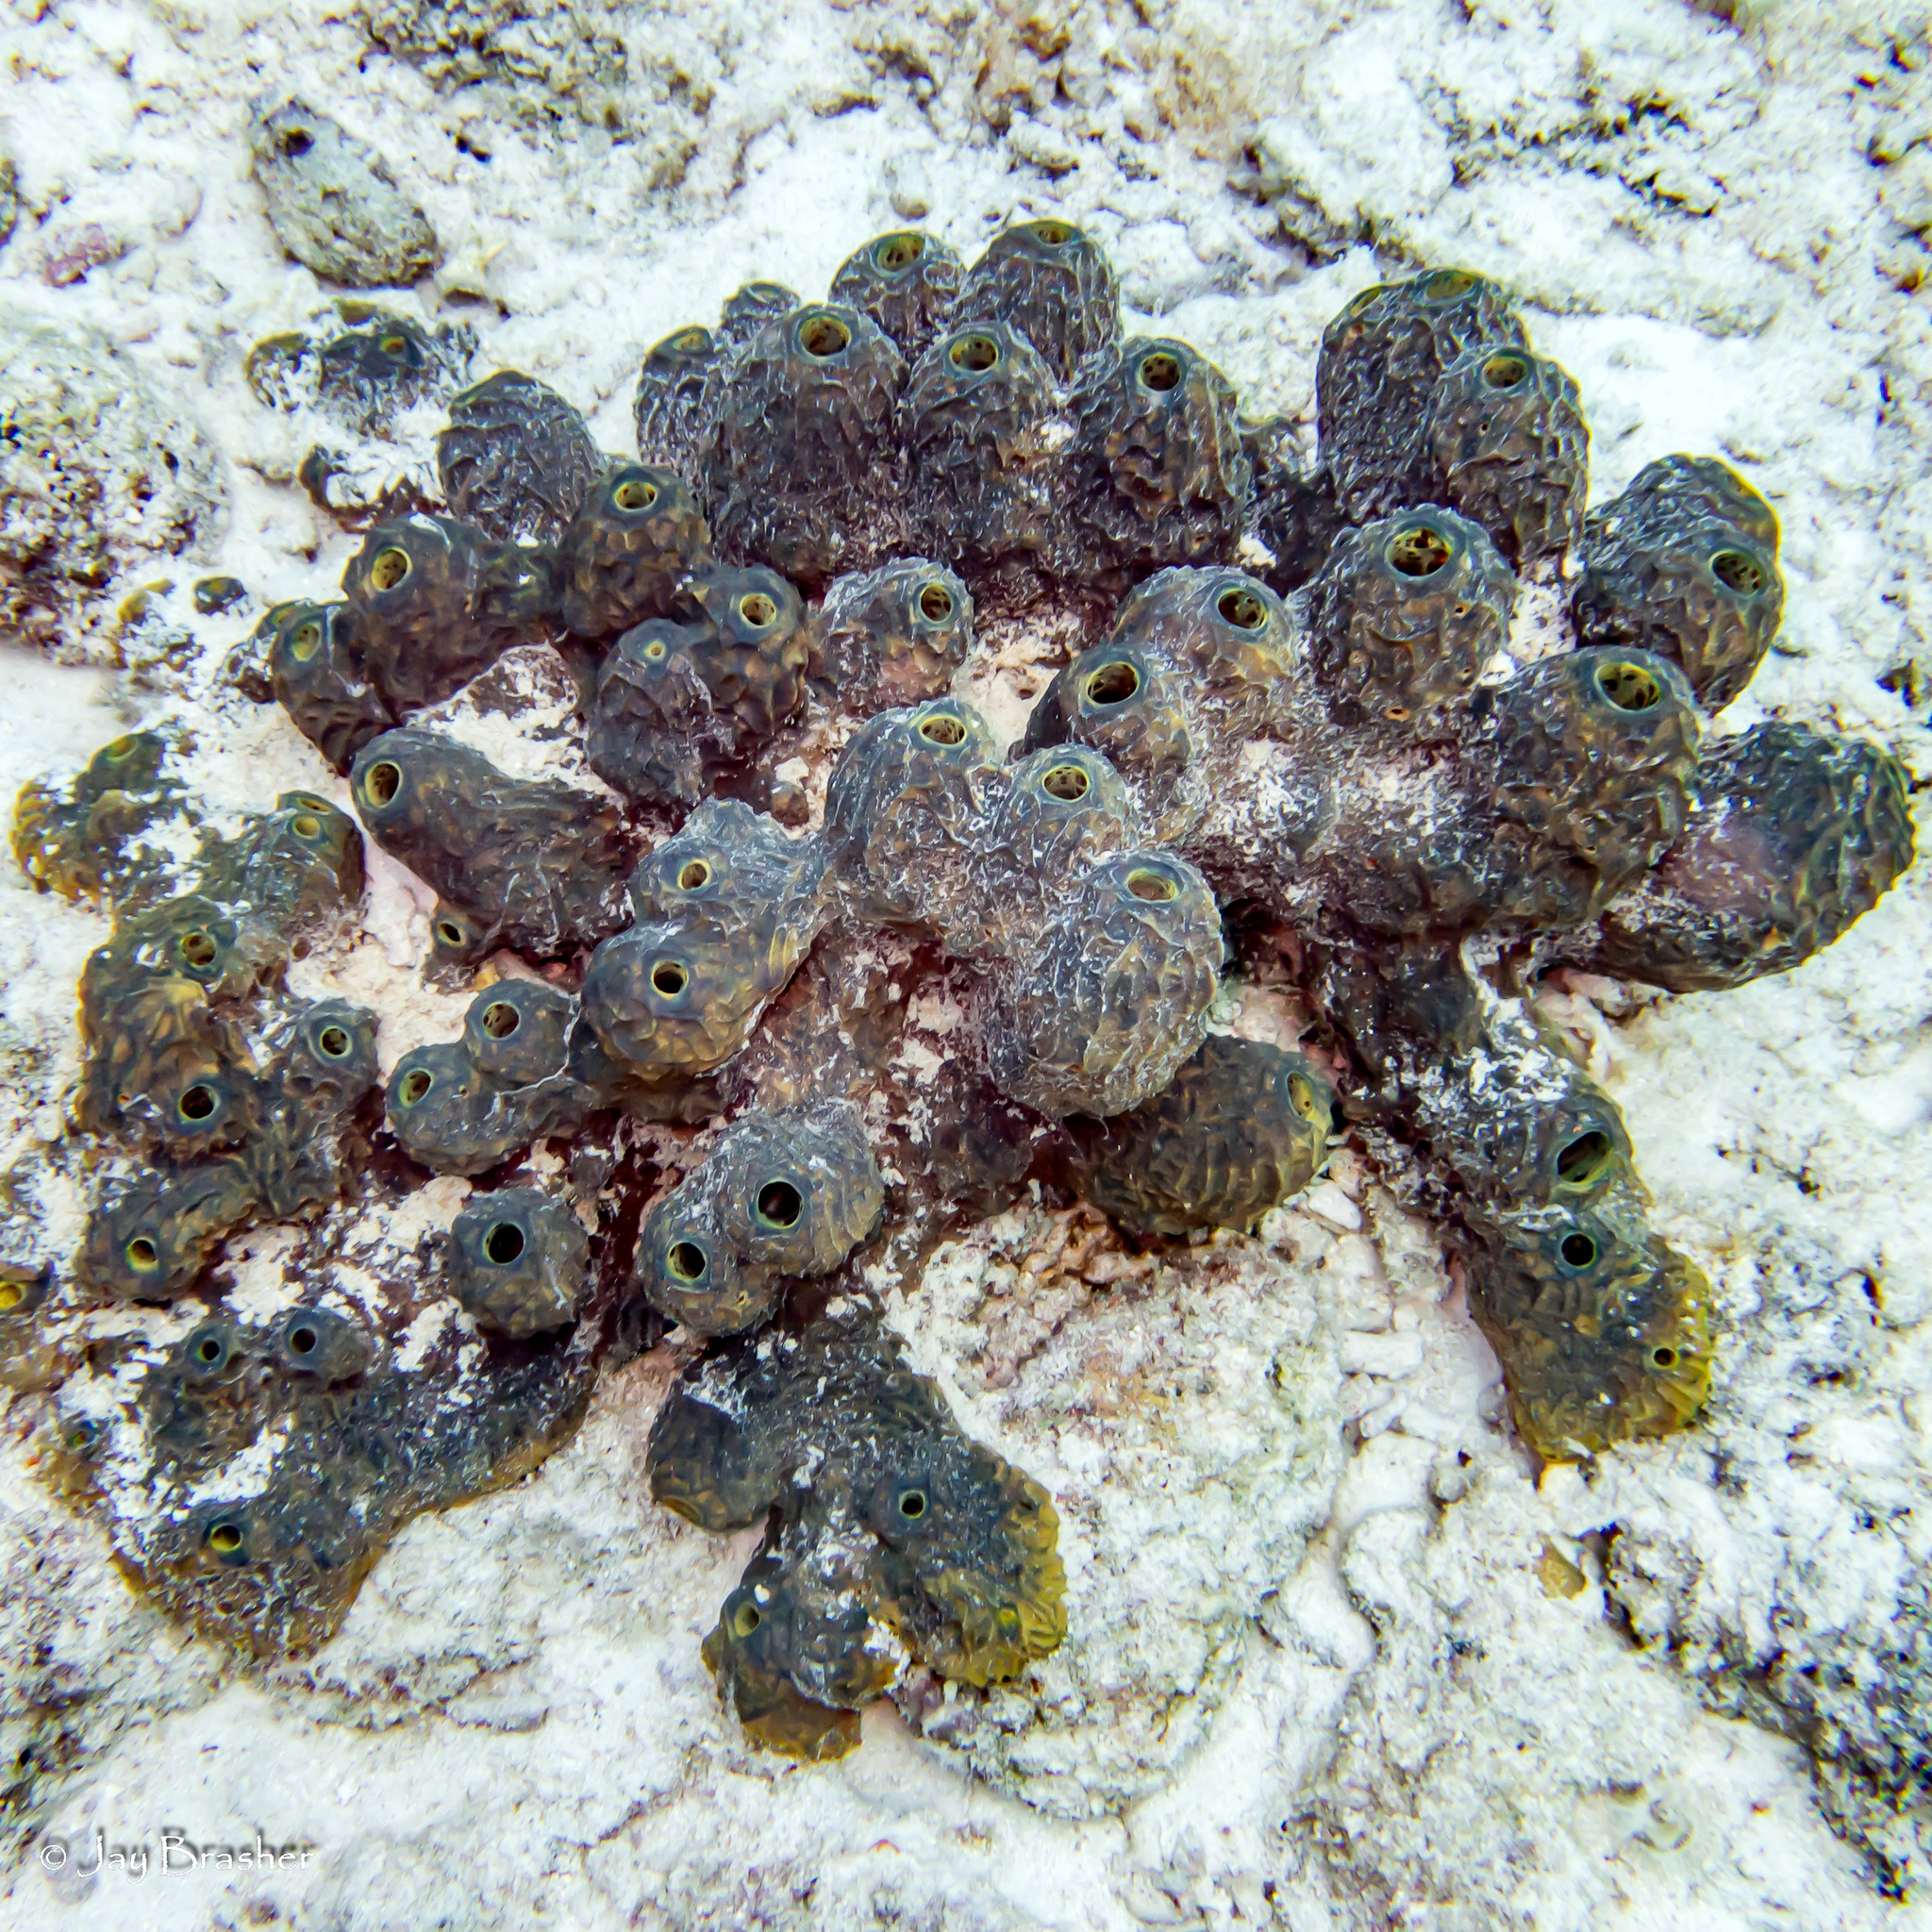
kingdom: Animalia
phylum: Porifera
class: Demospongiae
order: Verongiida
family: Aplysinidae
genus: Verongula
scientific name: Verongula rigida
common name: Pitted sponge
